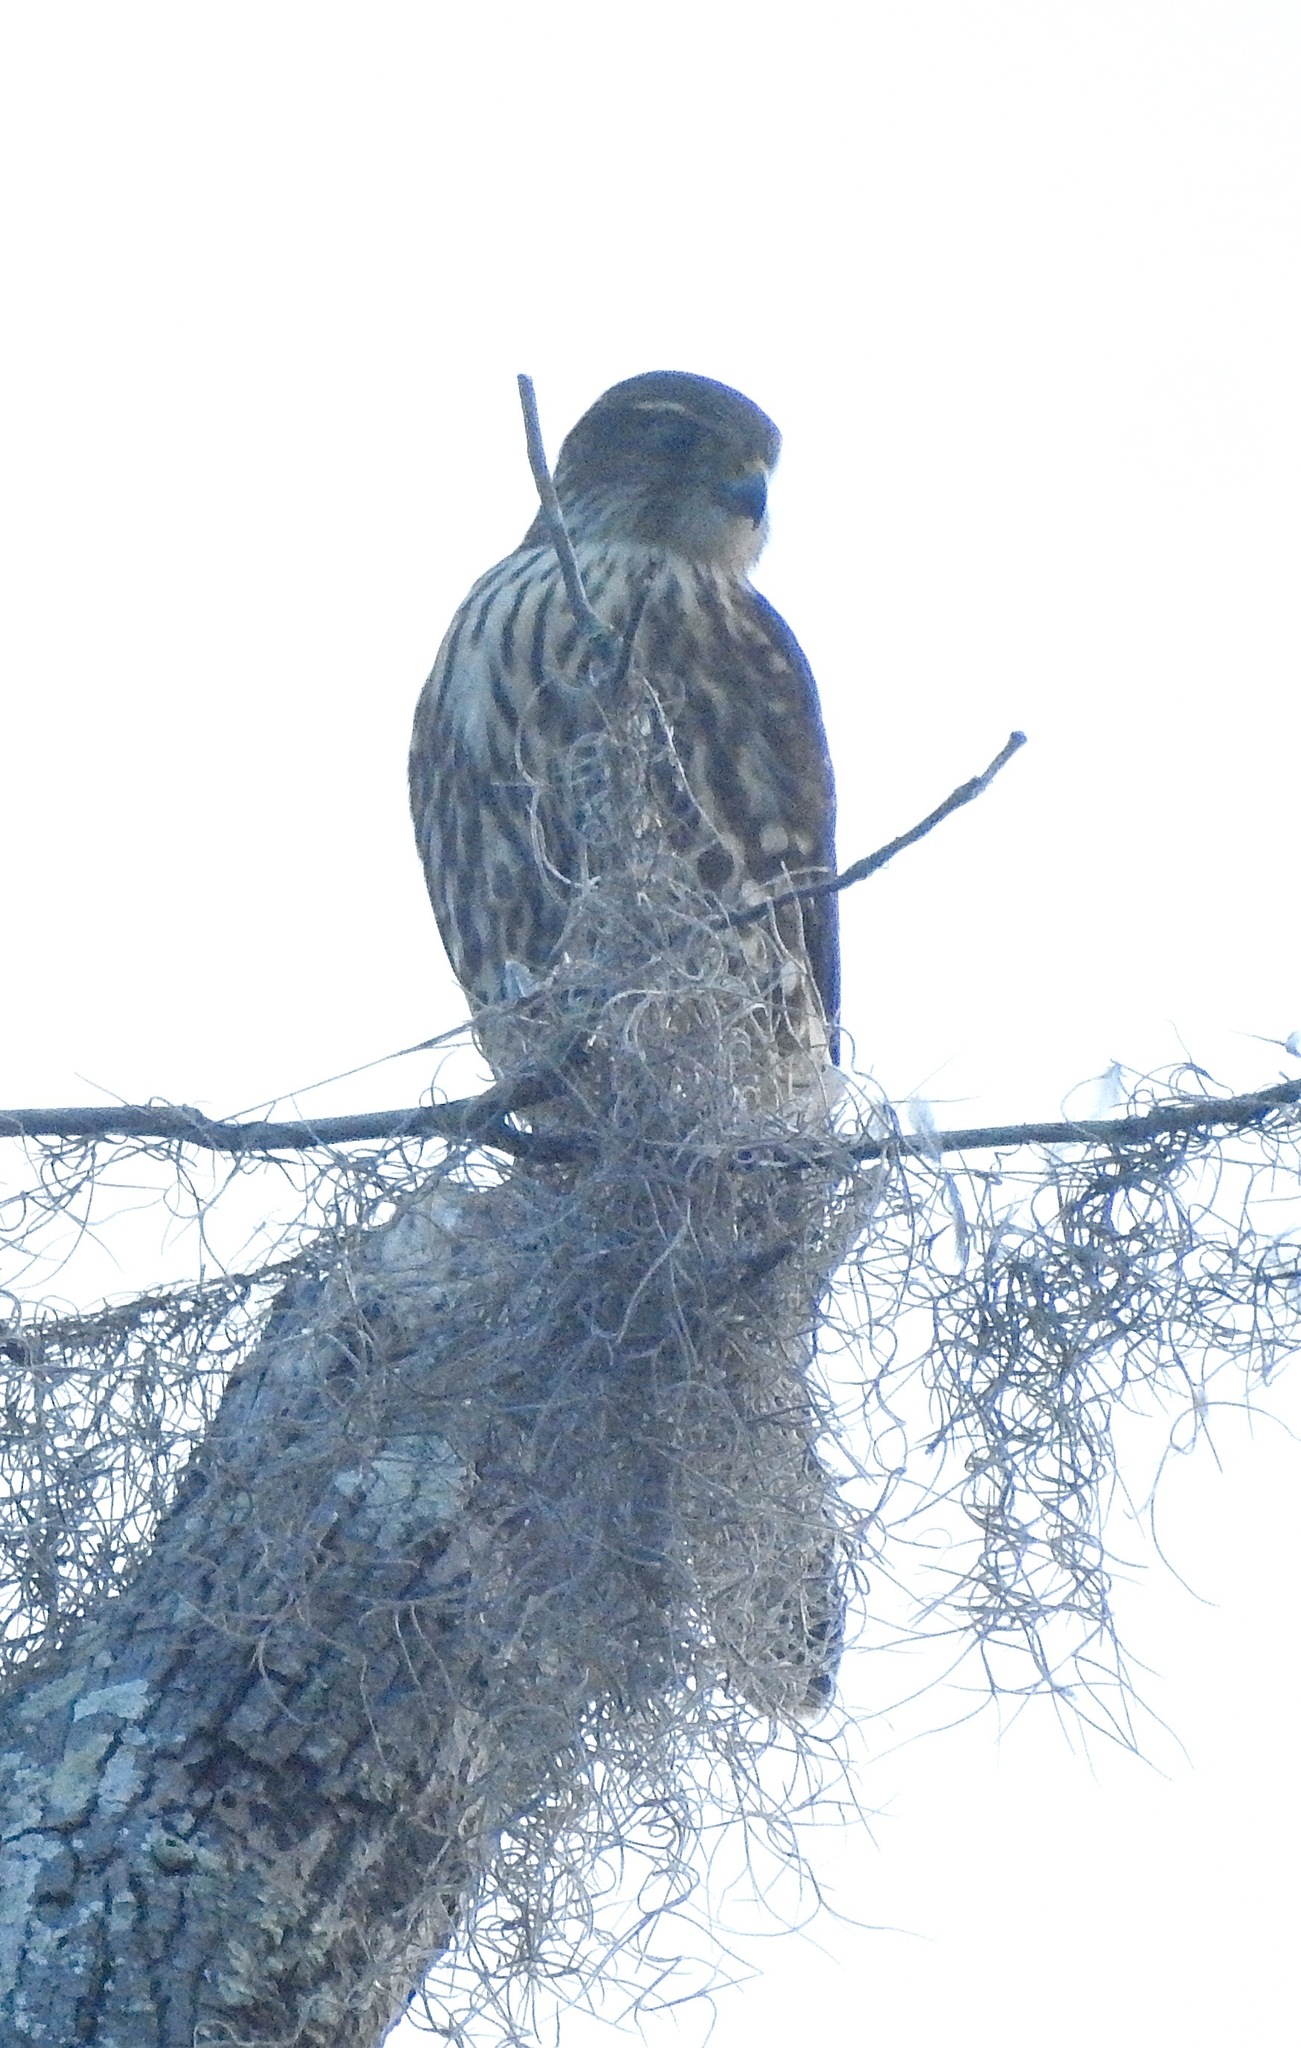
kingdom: Animalia
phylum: Chordata
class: Aves
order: Falconiformes
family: Falconidae
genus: Falco
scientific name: Falco columbarius
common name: Merlin
